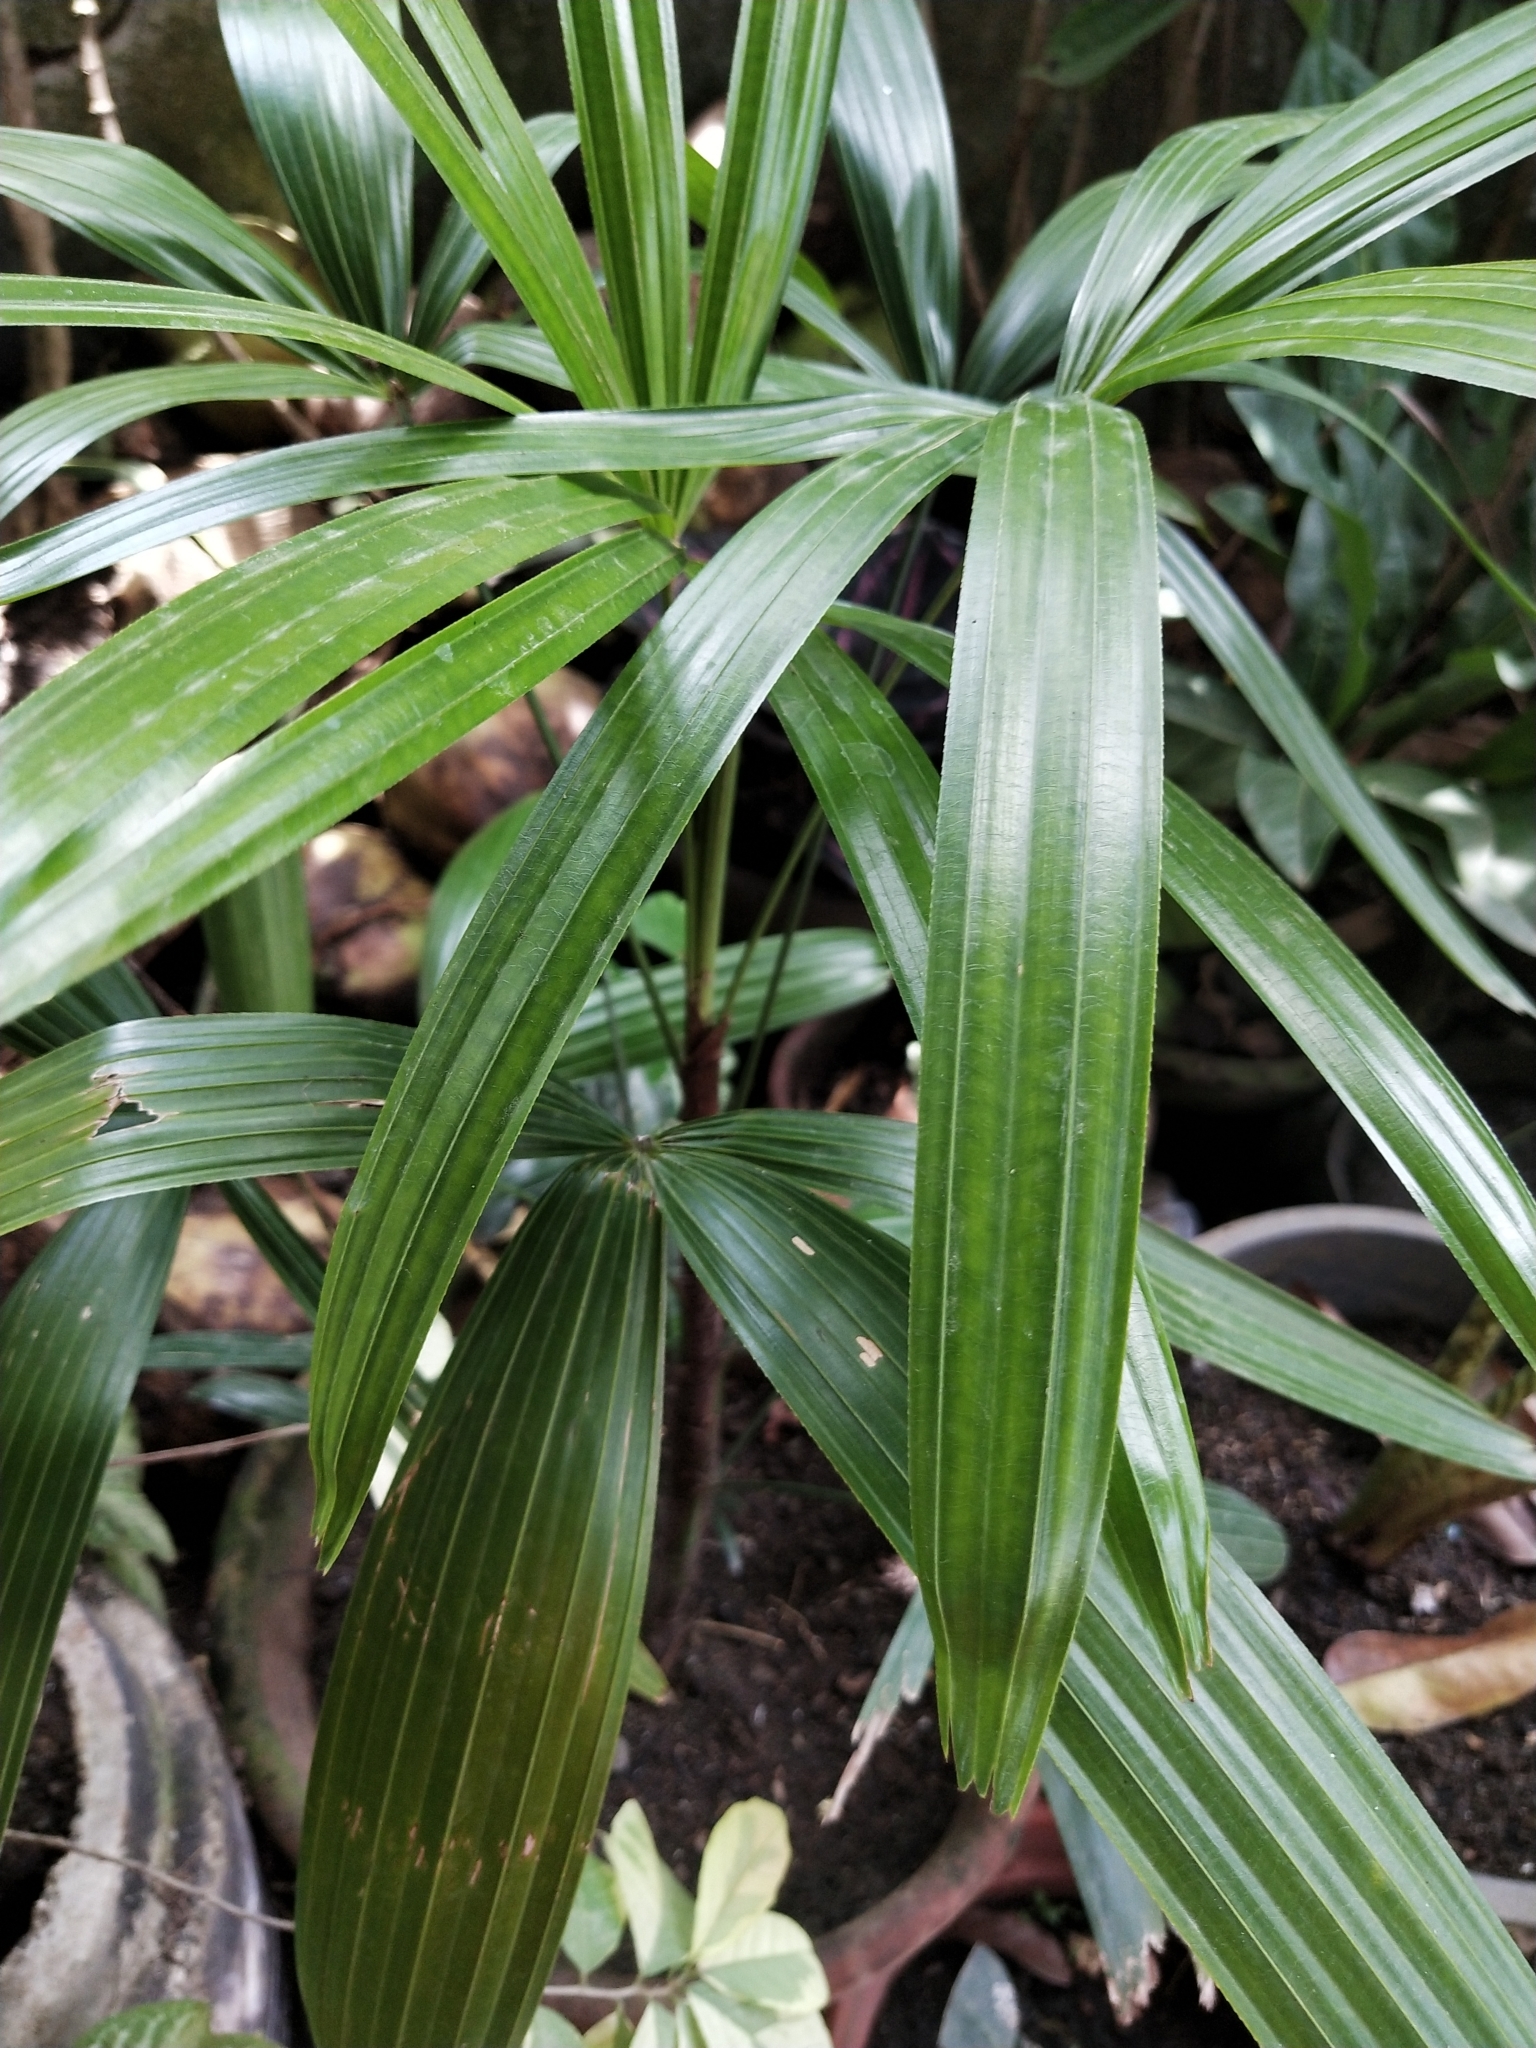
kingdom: Plantae
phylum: Tracheophyta
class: Liliopsida
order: Arecales
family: Arecaceae
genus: Rhapis
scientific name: Rhapis excelsa
